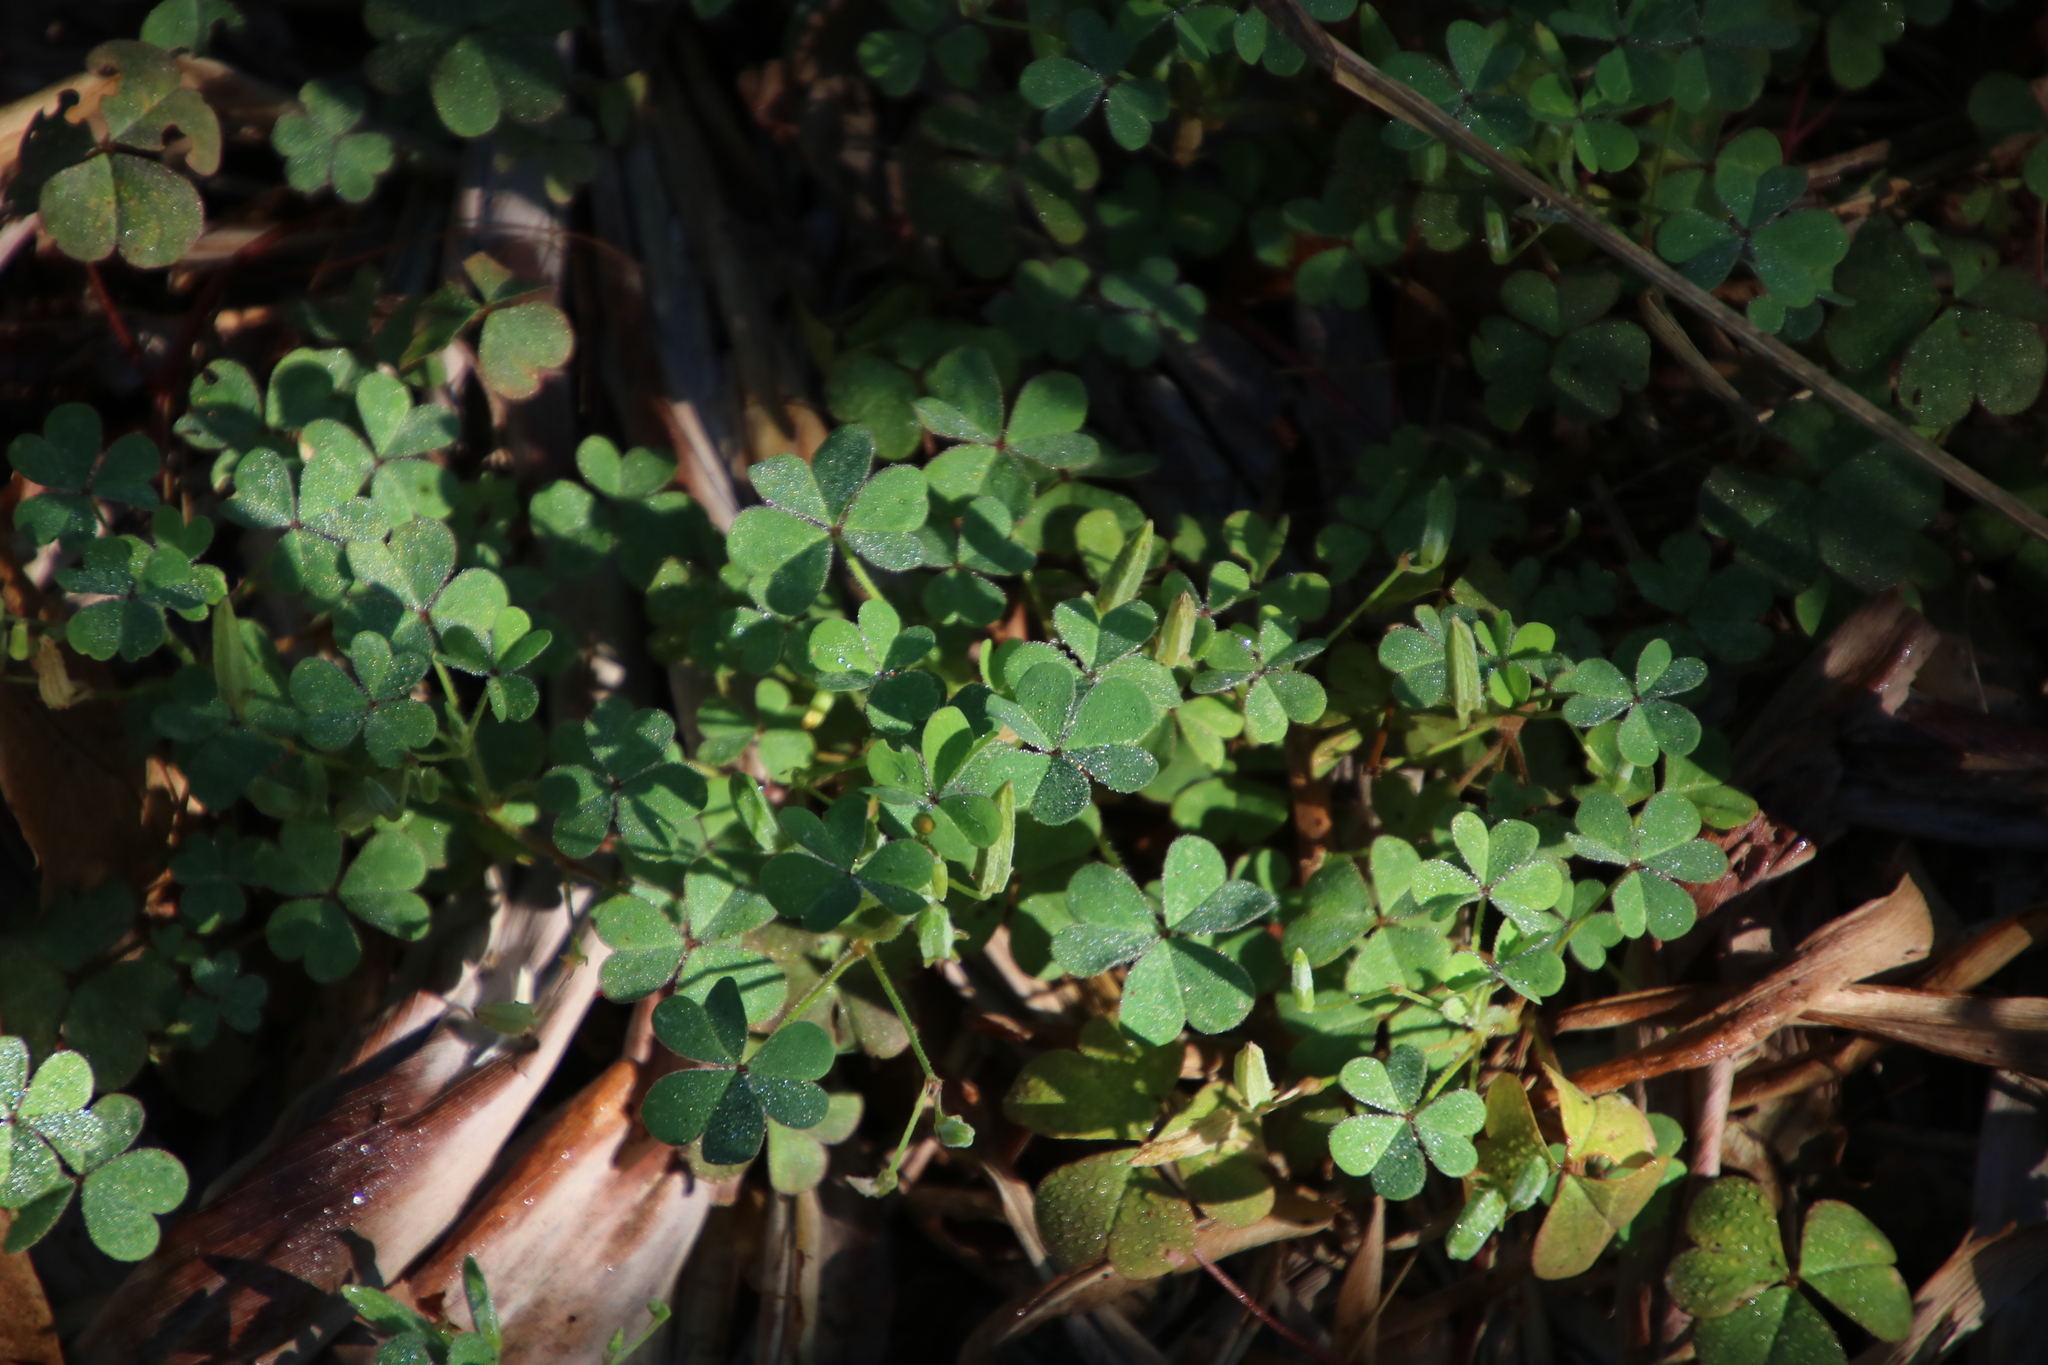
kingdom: Plantae
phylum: Tracheophyta
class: Magnoliopsida
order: Oxalidales
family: Oxalidaceae
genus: Oxalis
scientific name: Oxalis corniculata
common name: Procumbent yellow-sorrel
